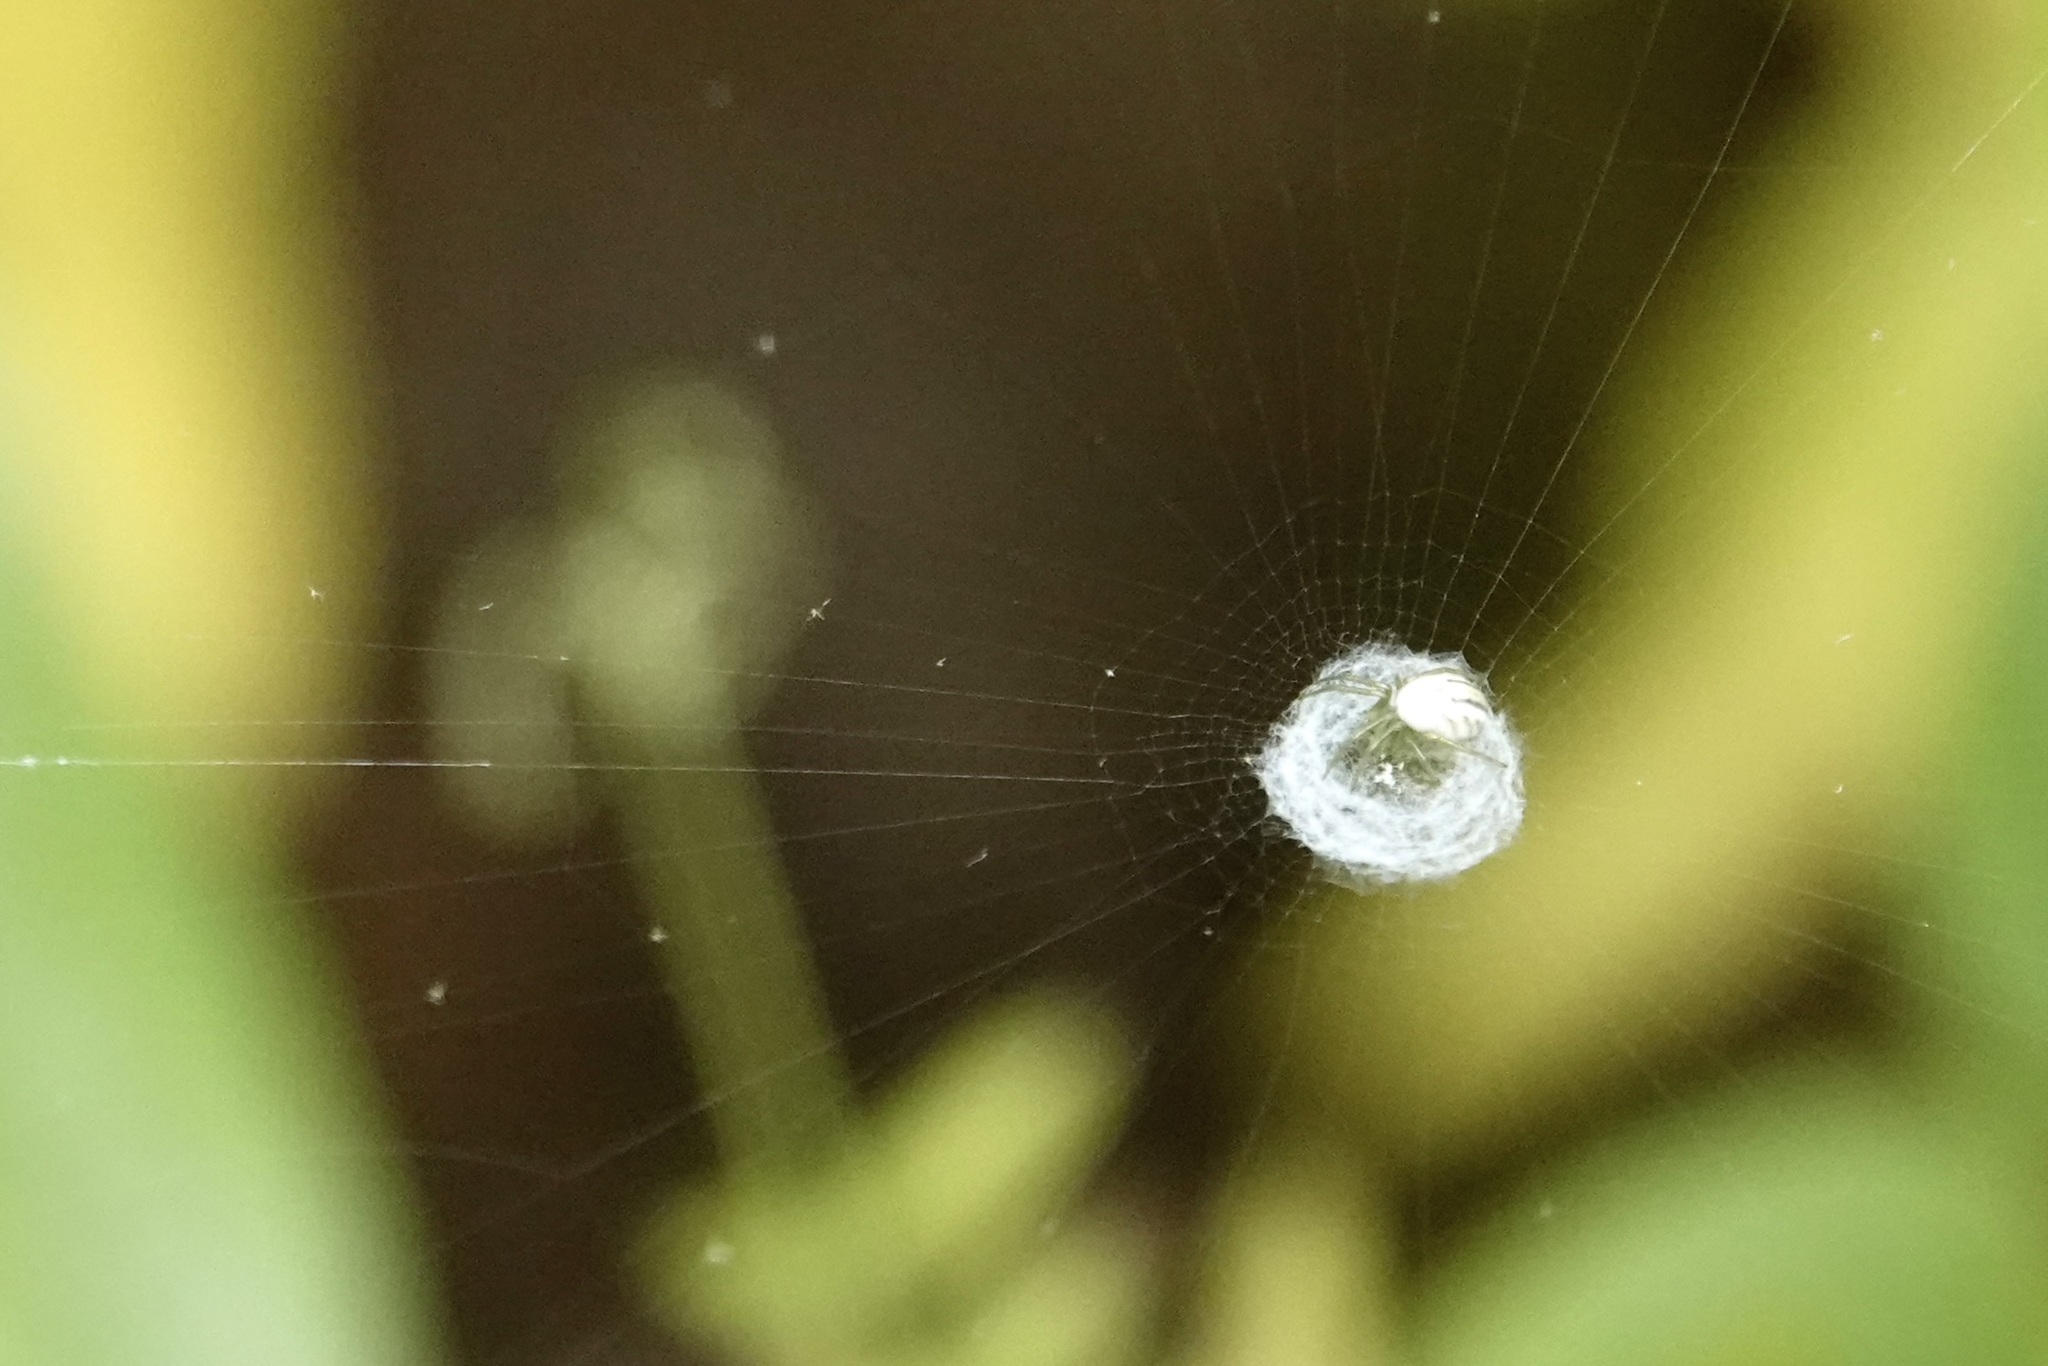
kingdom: Animalia
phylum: Arthropoda
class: Arachnida
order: Araneae
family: Araneidae
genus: Mangora
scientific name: Mangora gibberosa
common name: Lined orbweaver
